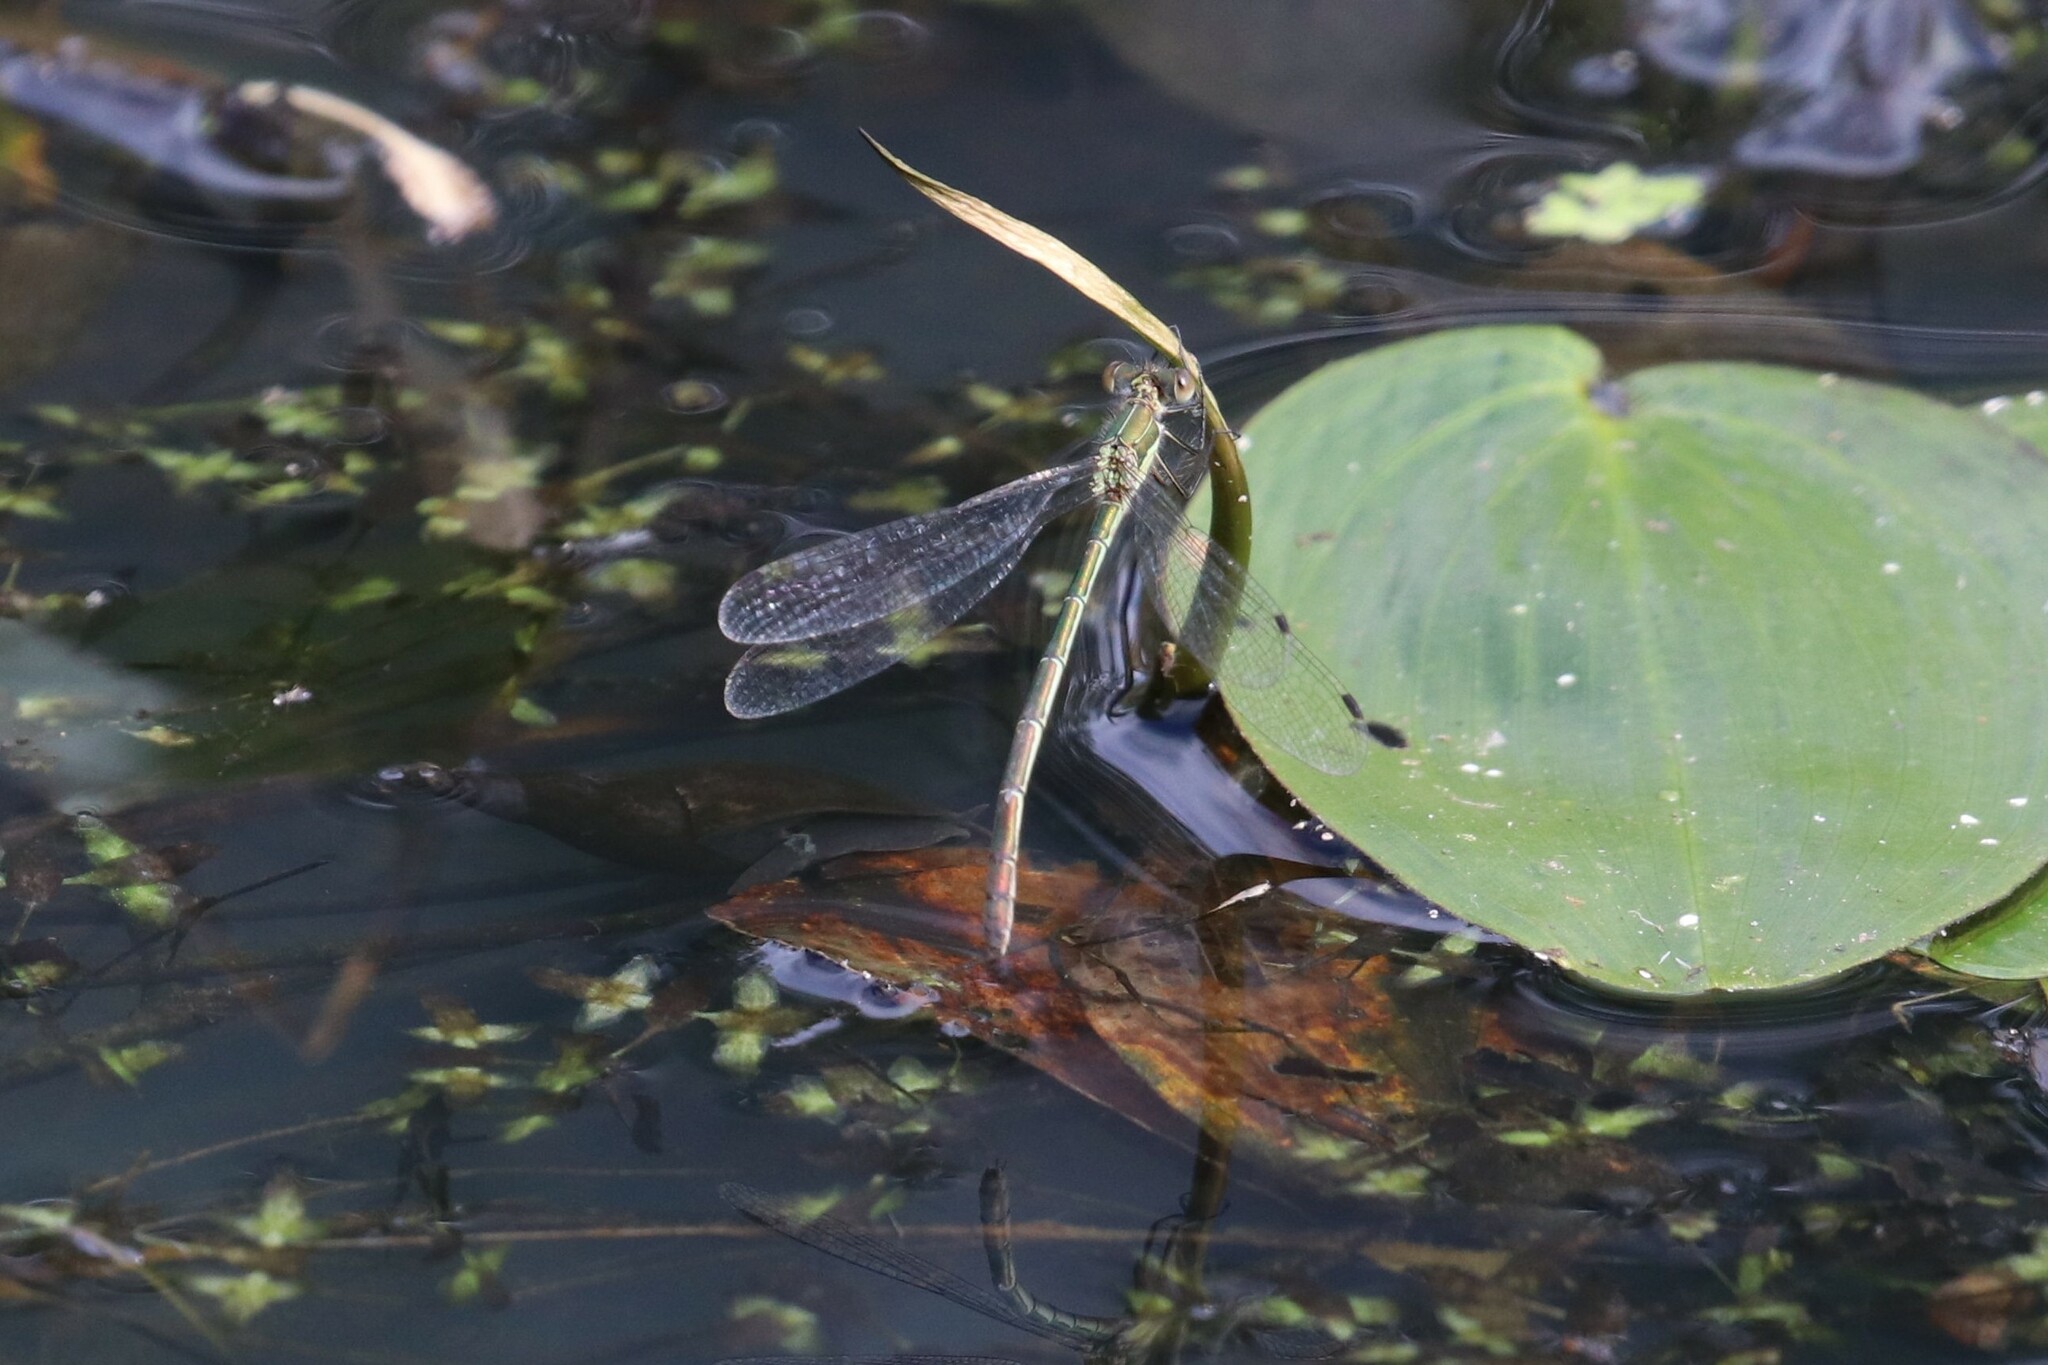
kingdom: Animalia
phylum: Arthropoda
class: Insecta
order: Odonata
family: Lestidae
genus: Lestes
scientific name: Lestes sponsa
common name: Common spreadwing
